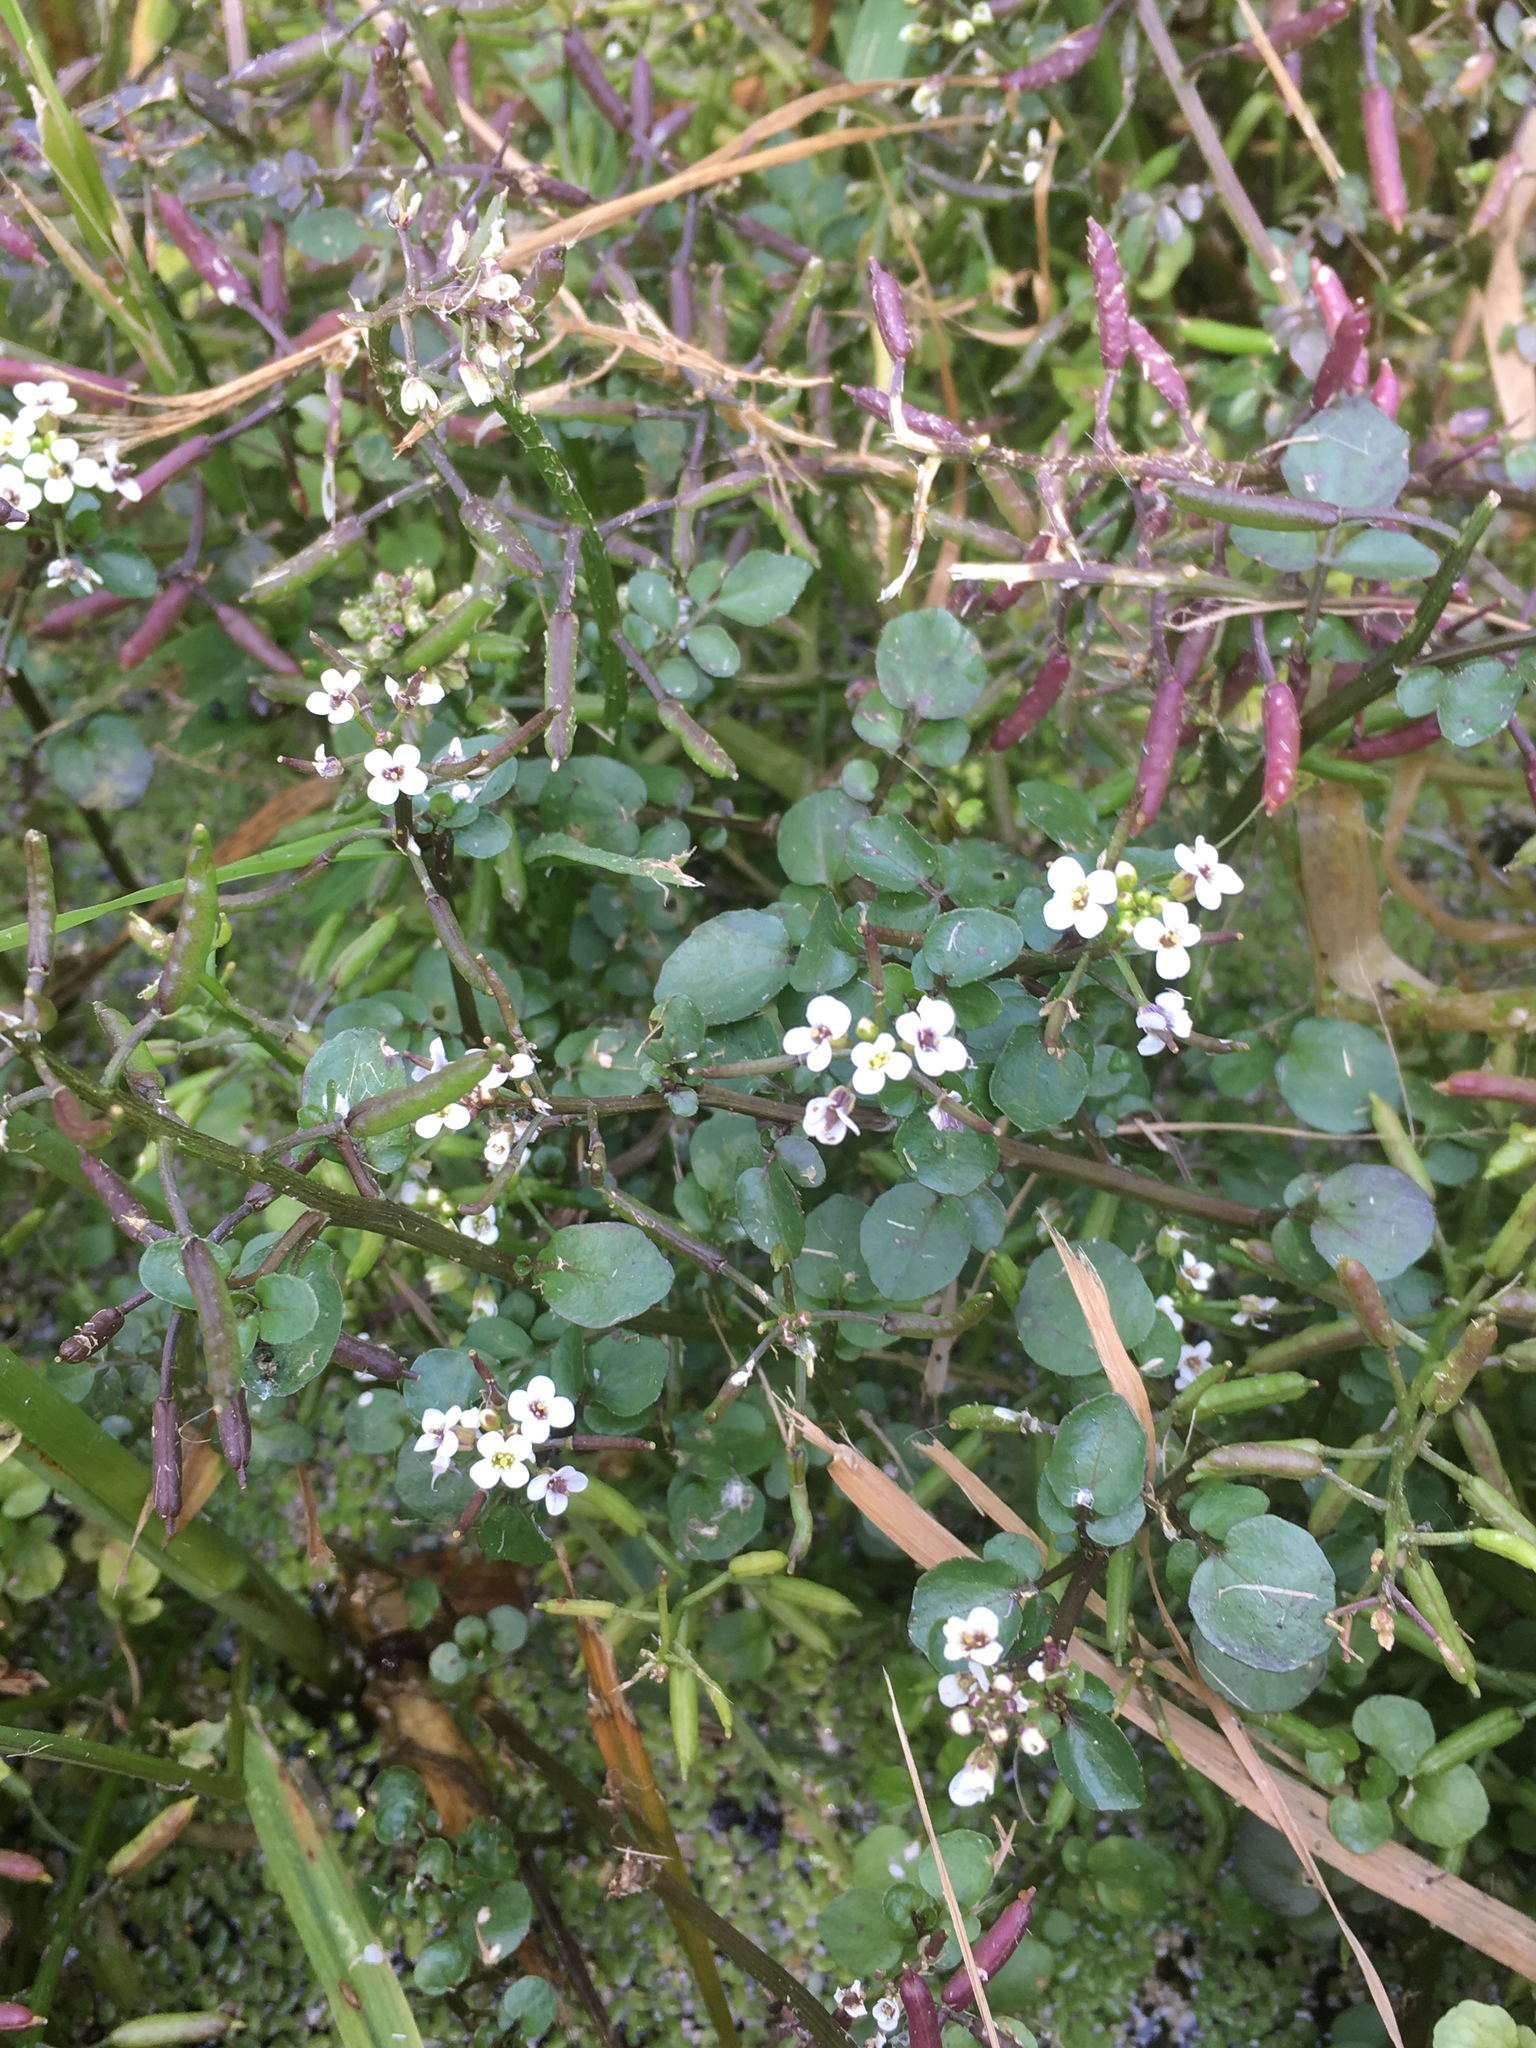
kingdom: Plantae
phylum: Tracheophyta
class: Magnoliopsida
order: Brassicales
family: Brassicaceae
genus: Nasturtium
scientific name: Nasturtium officinale
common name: Watercress
